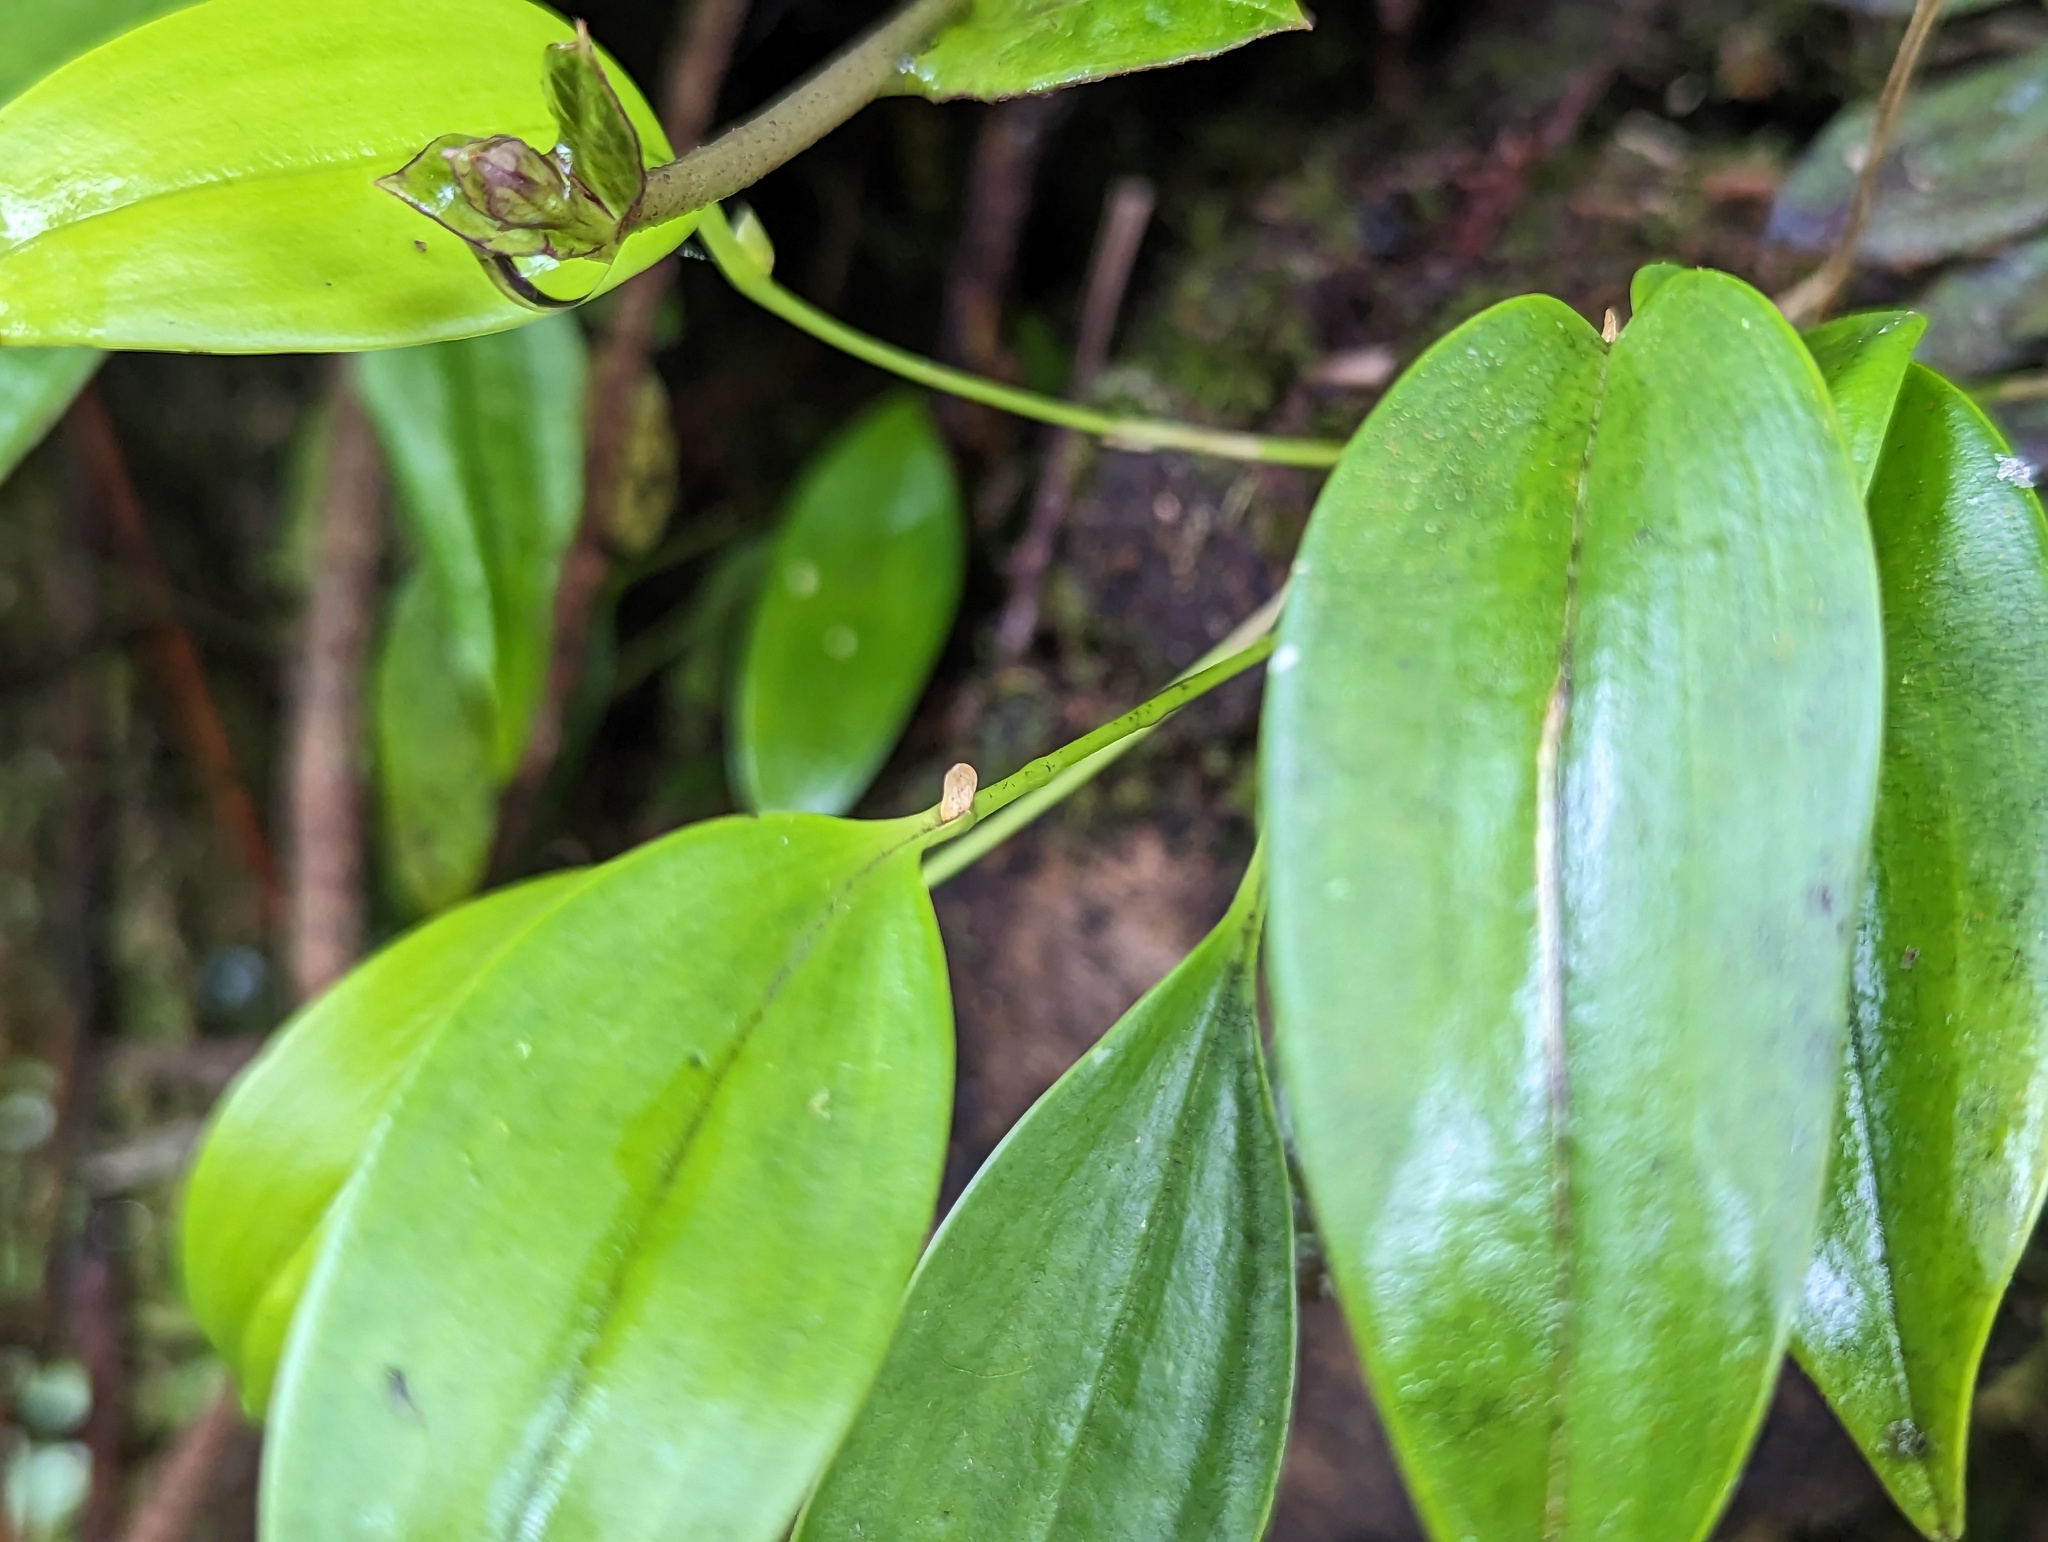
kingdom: Plantae
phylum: Tracheophyta
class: Liliopsida
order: Asparagales
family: Orchidaceae
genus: Pleurothallis
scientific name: Pleurothallis ruscifolia
